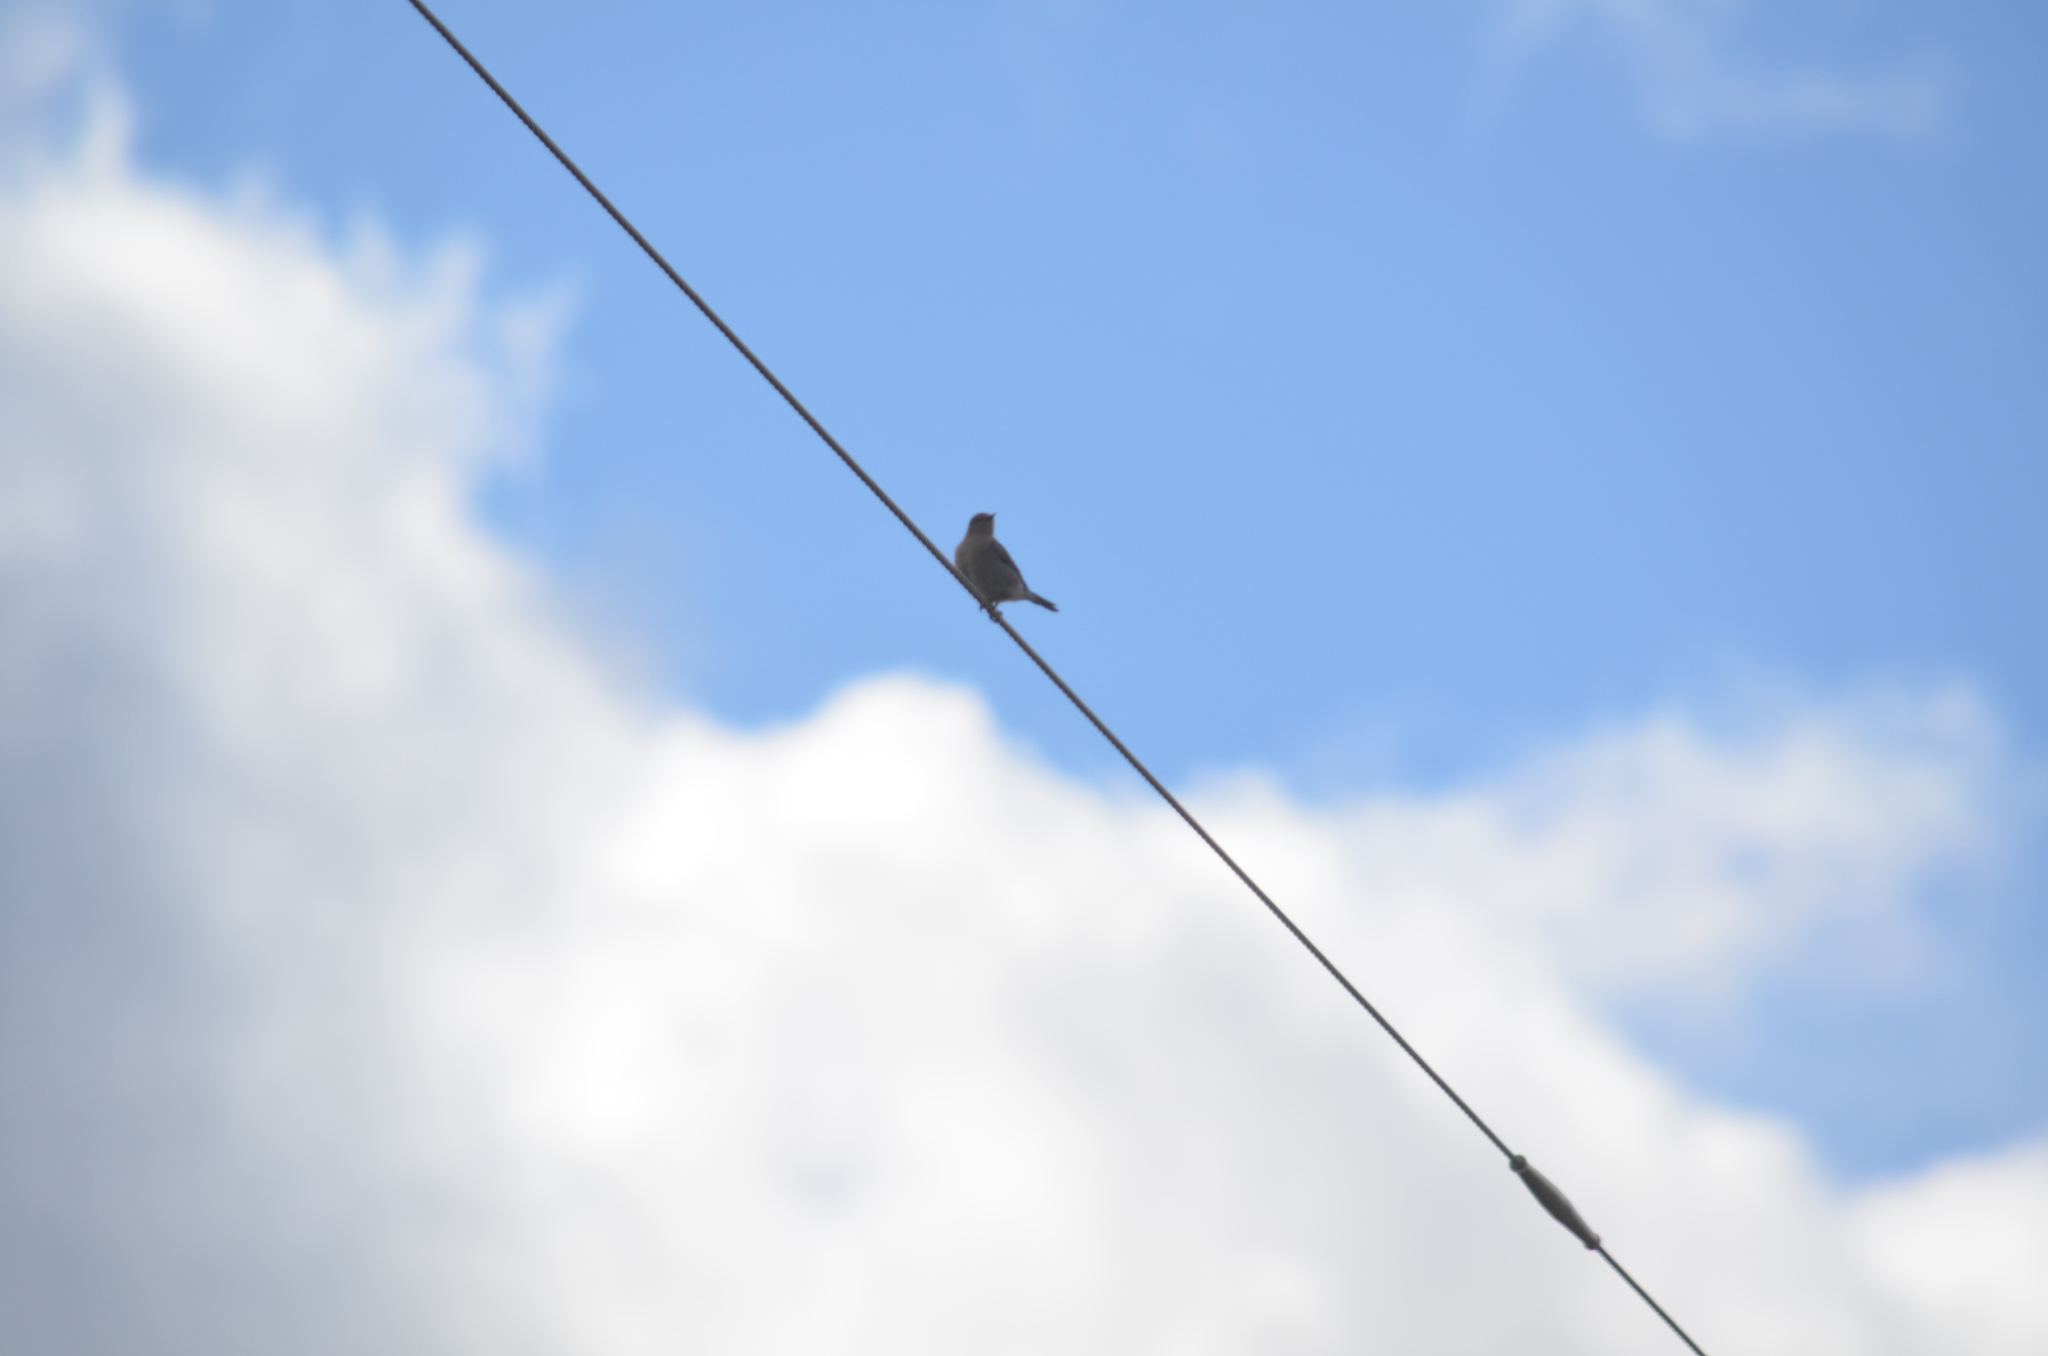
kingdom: Animalia
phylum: Chordata
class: Aves
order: Passeriformes
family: Turdidae
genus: Sialia
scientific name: Sialia currucoides
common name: Mountain bluebird
